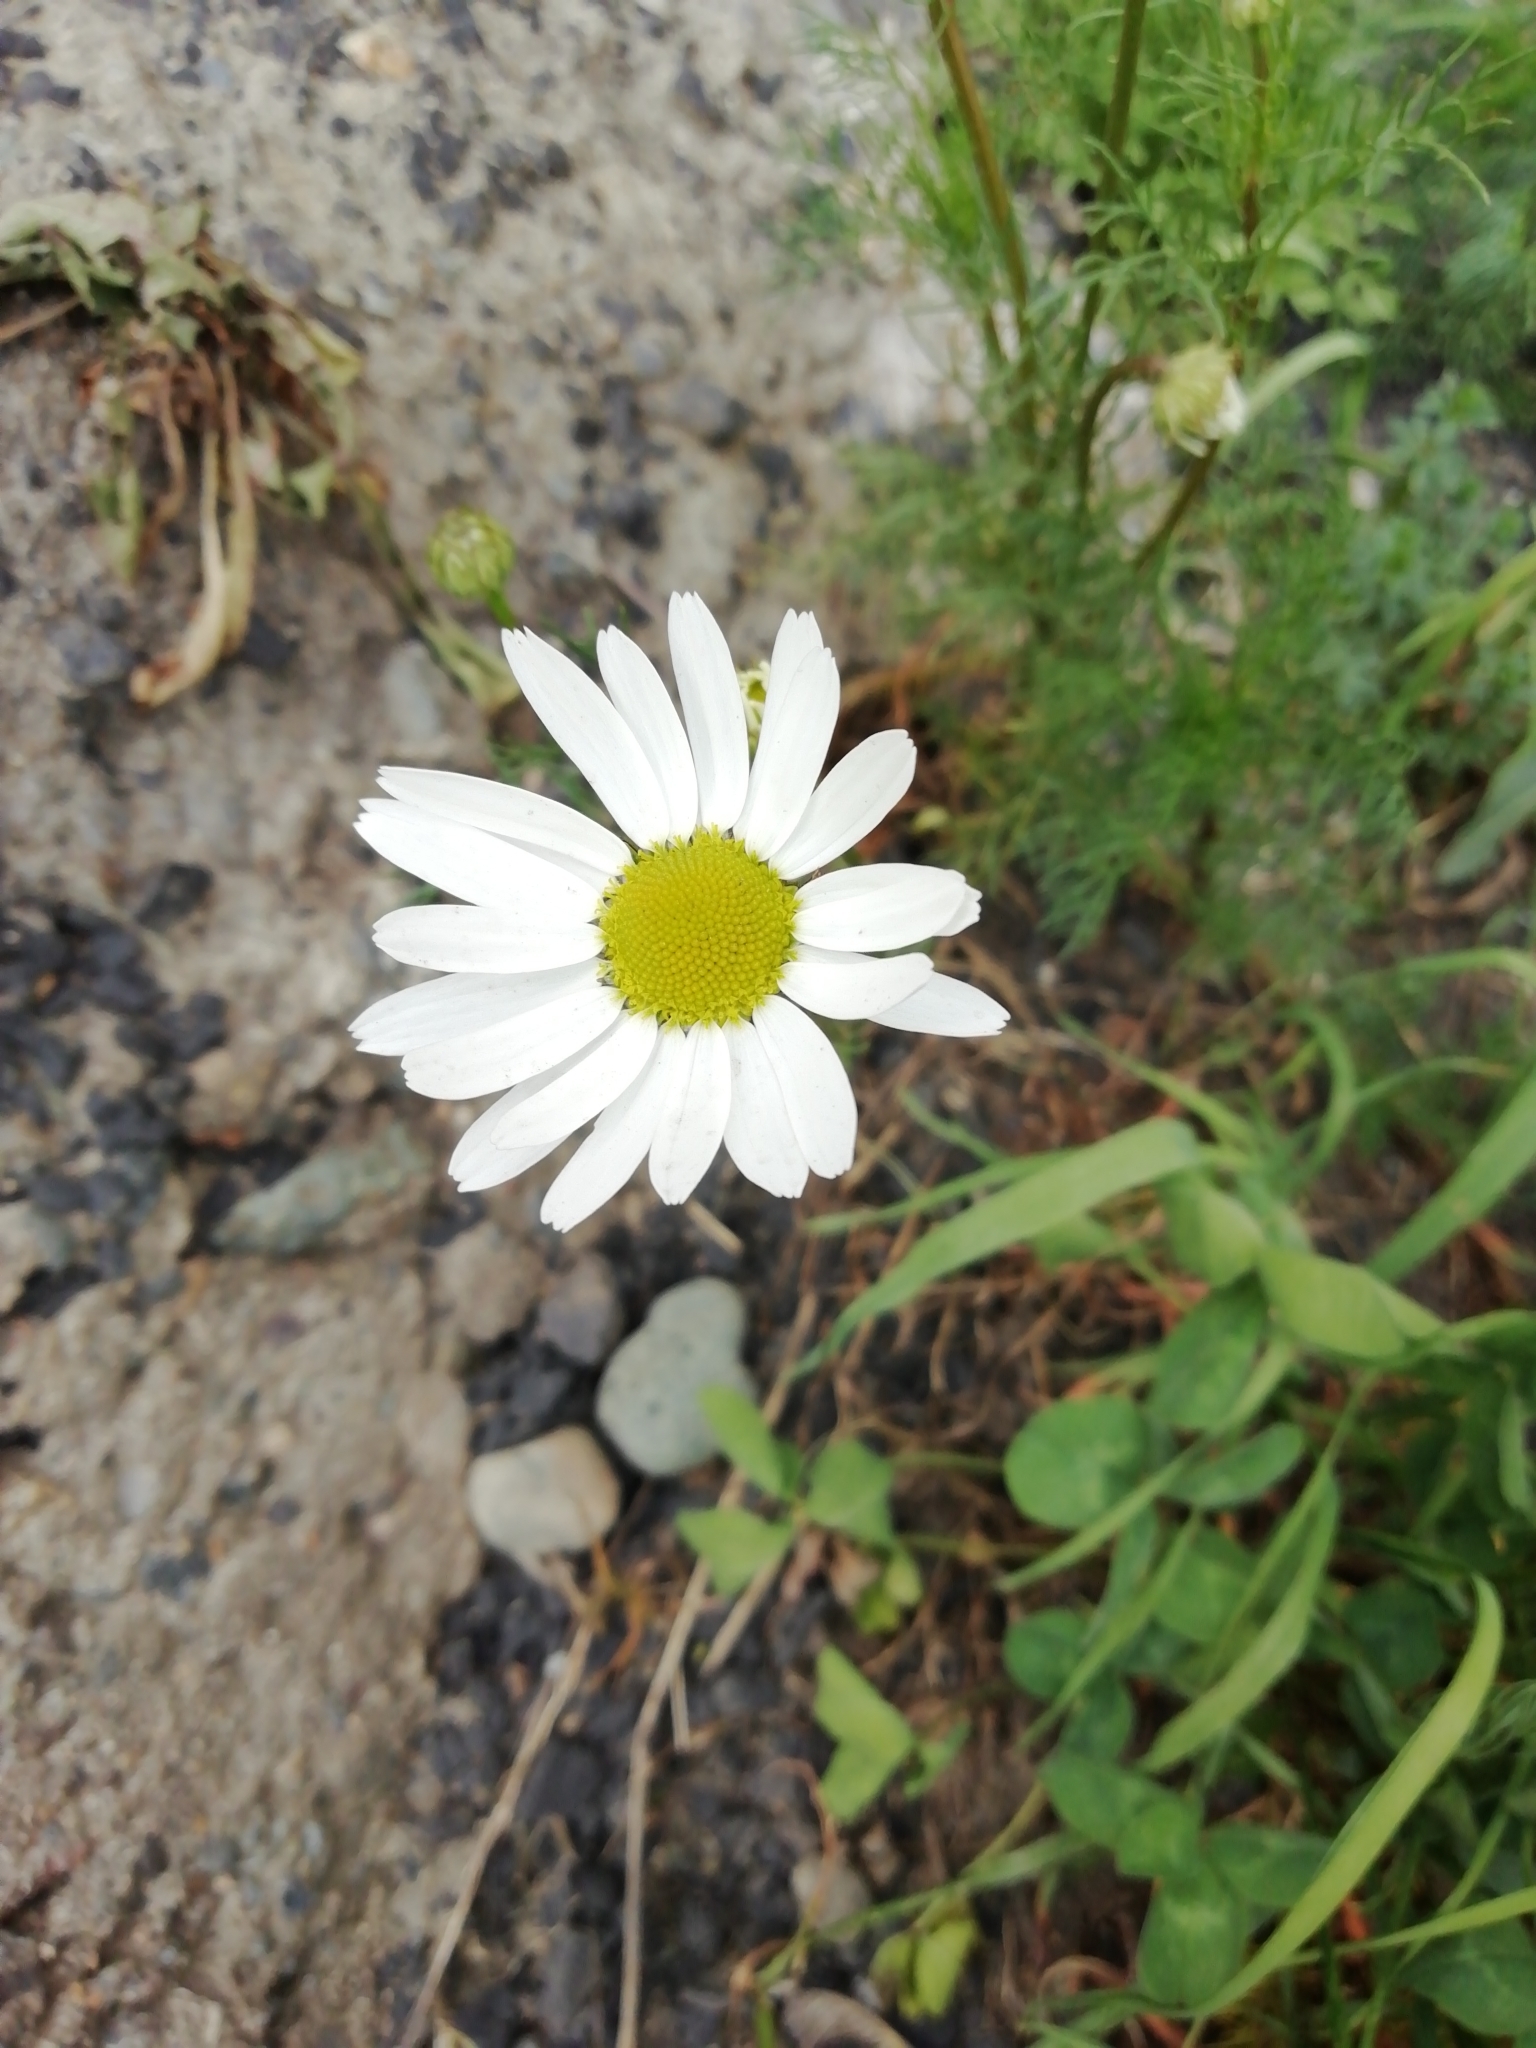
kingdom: Plantae
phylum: Tracheophyta
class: Magnoliopsida
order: Asterales
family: Asteraceae
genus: Tripleurospermum
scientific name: Tripleurospermum inodorum
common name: Scentless mayweed
